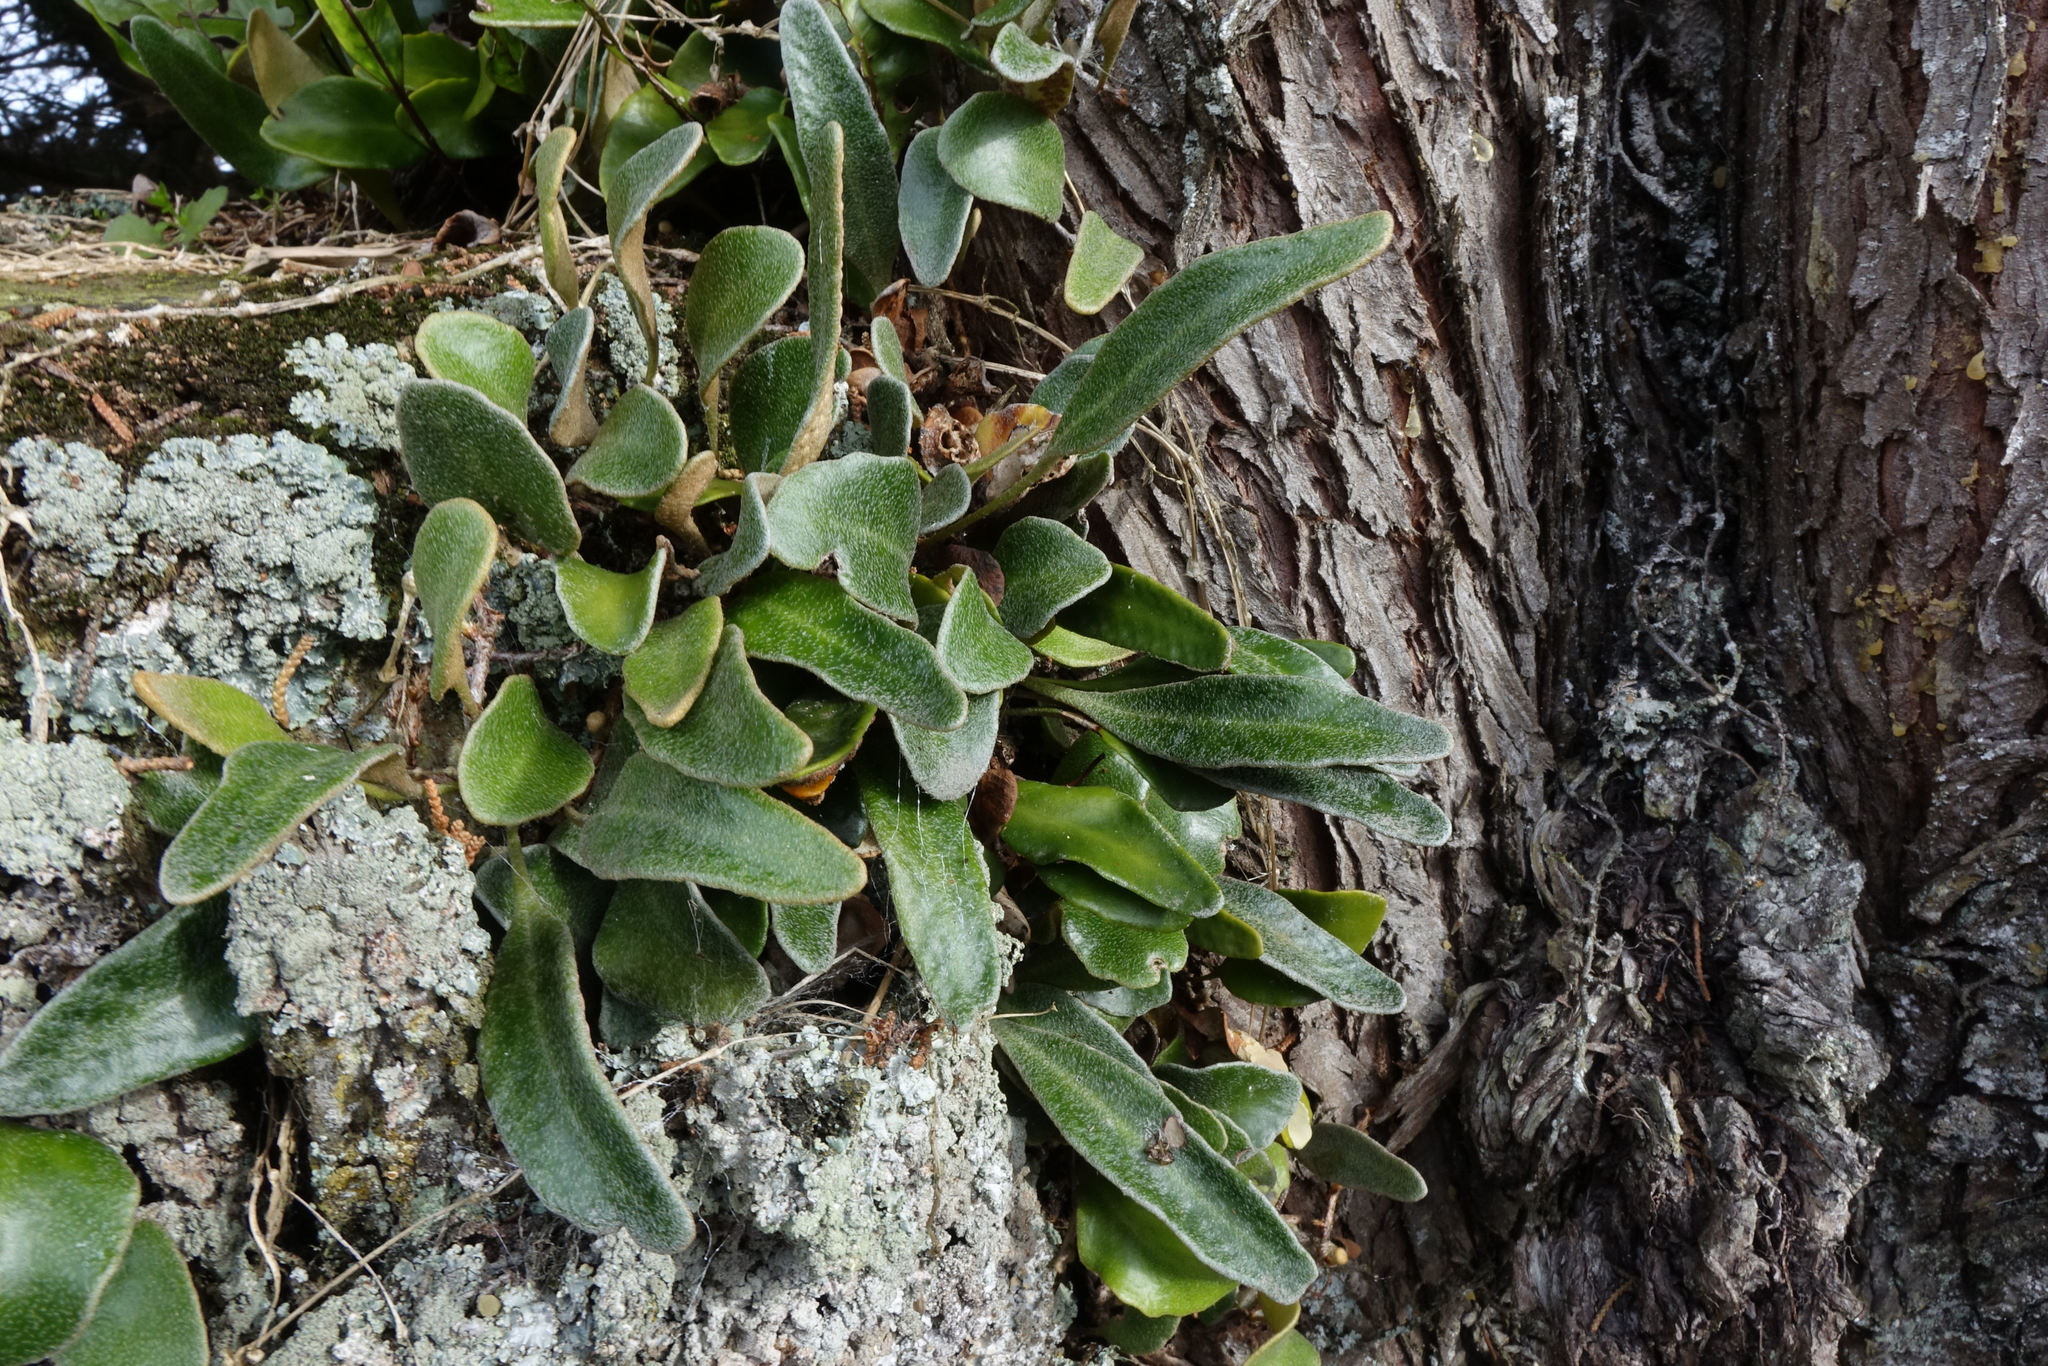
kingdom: Plantae
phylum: Tracheophyta
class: Polypodiopsida
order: Polypodiales
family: Polypodiaceae
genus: Pyrrosia
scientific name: Pyrrosia eleagnifolia
